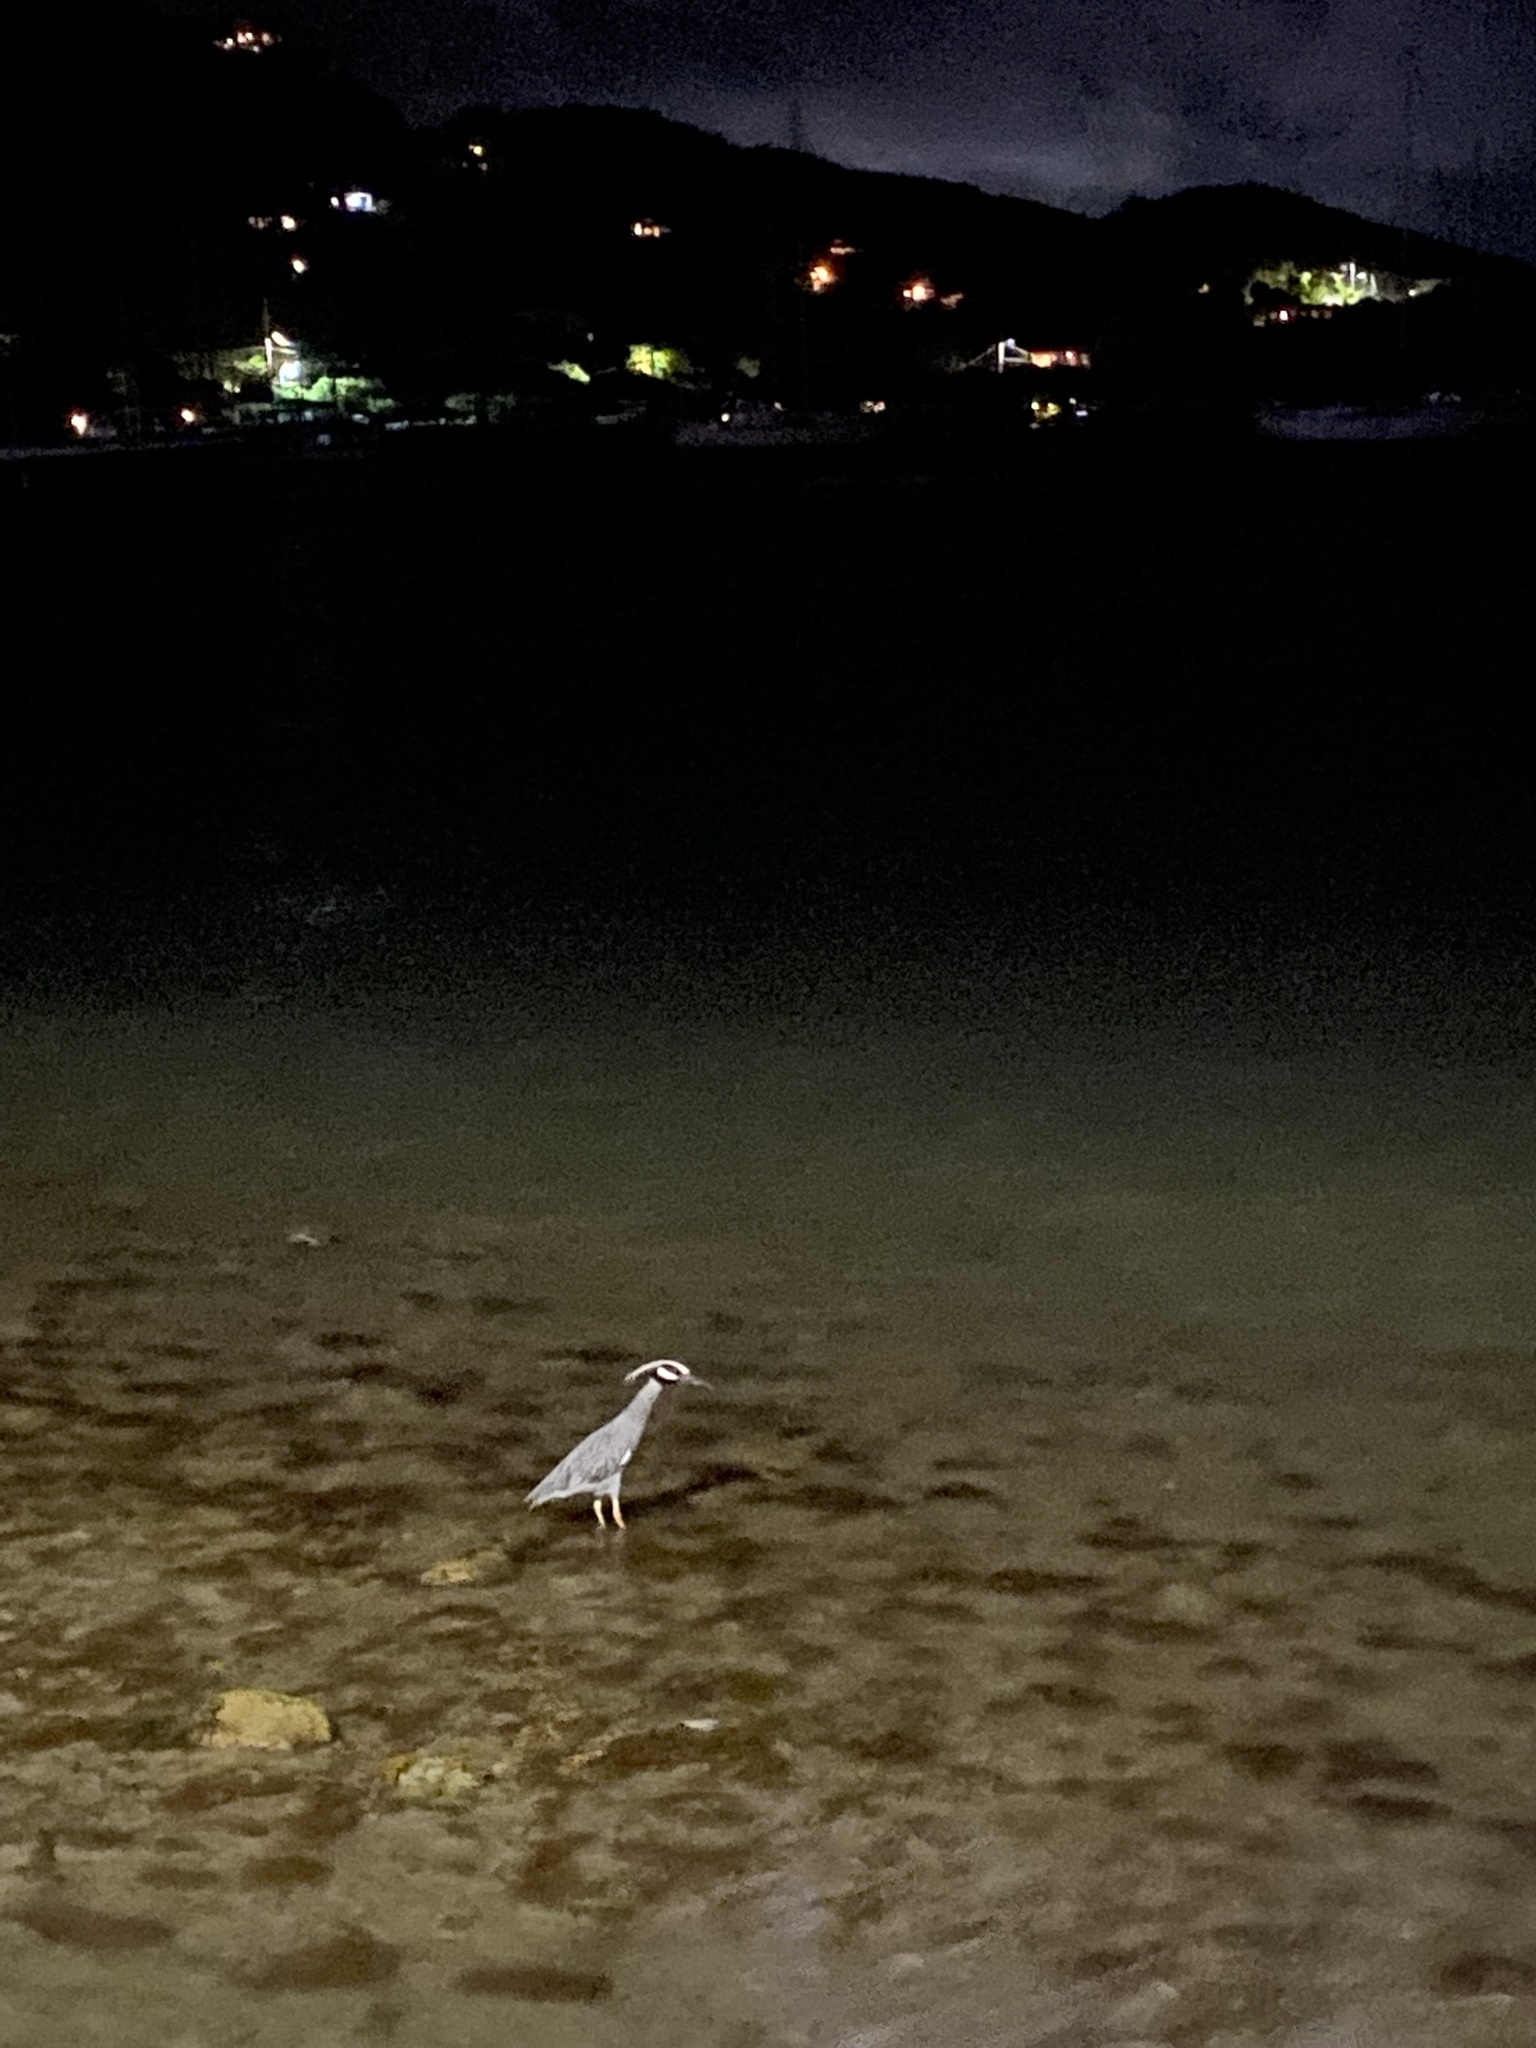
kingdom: Animalia
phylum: Chordata
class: Aves
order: Pelecaniformes
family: Ardeidae
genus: Nyctanassa
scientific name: Nyctanassa violacea
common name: Yellow-crowned night heron
